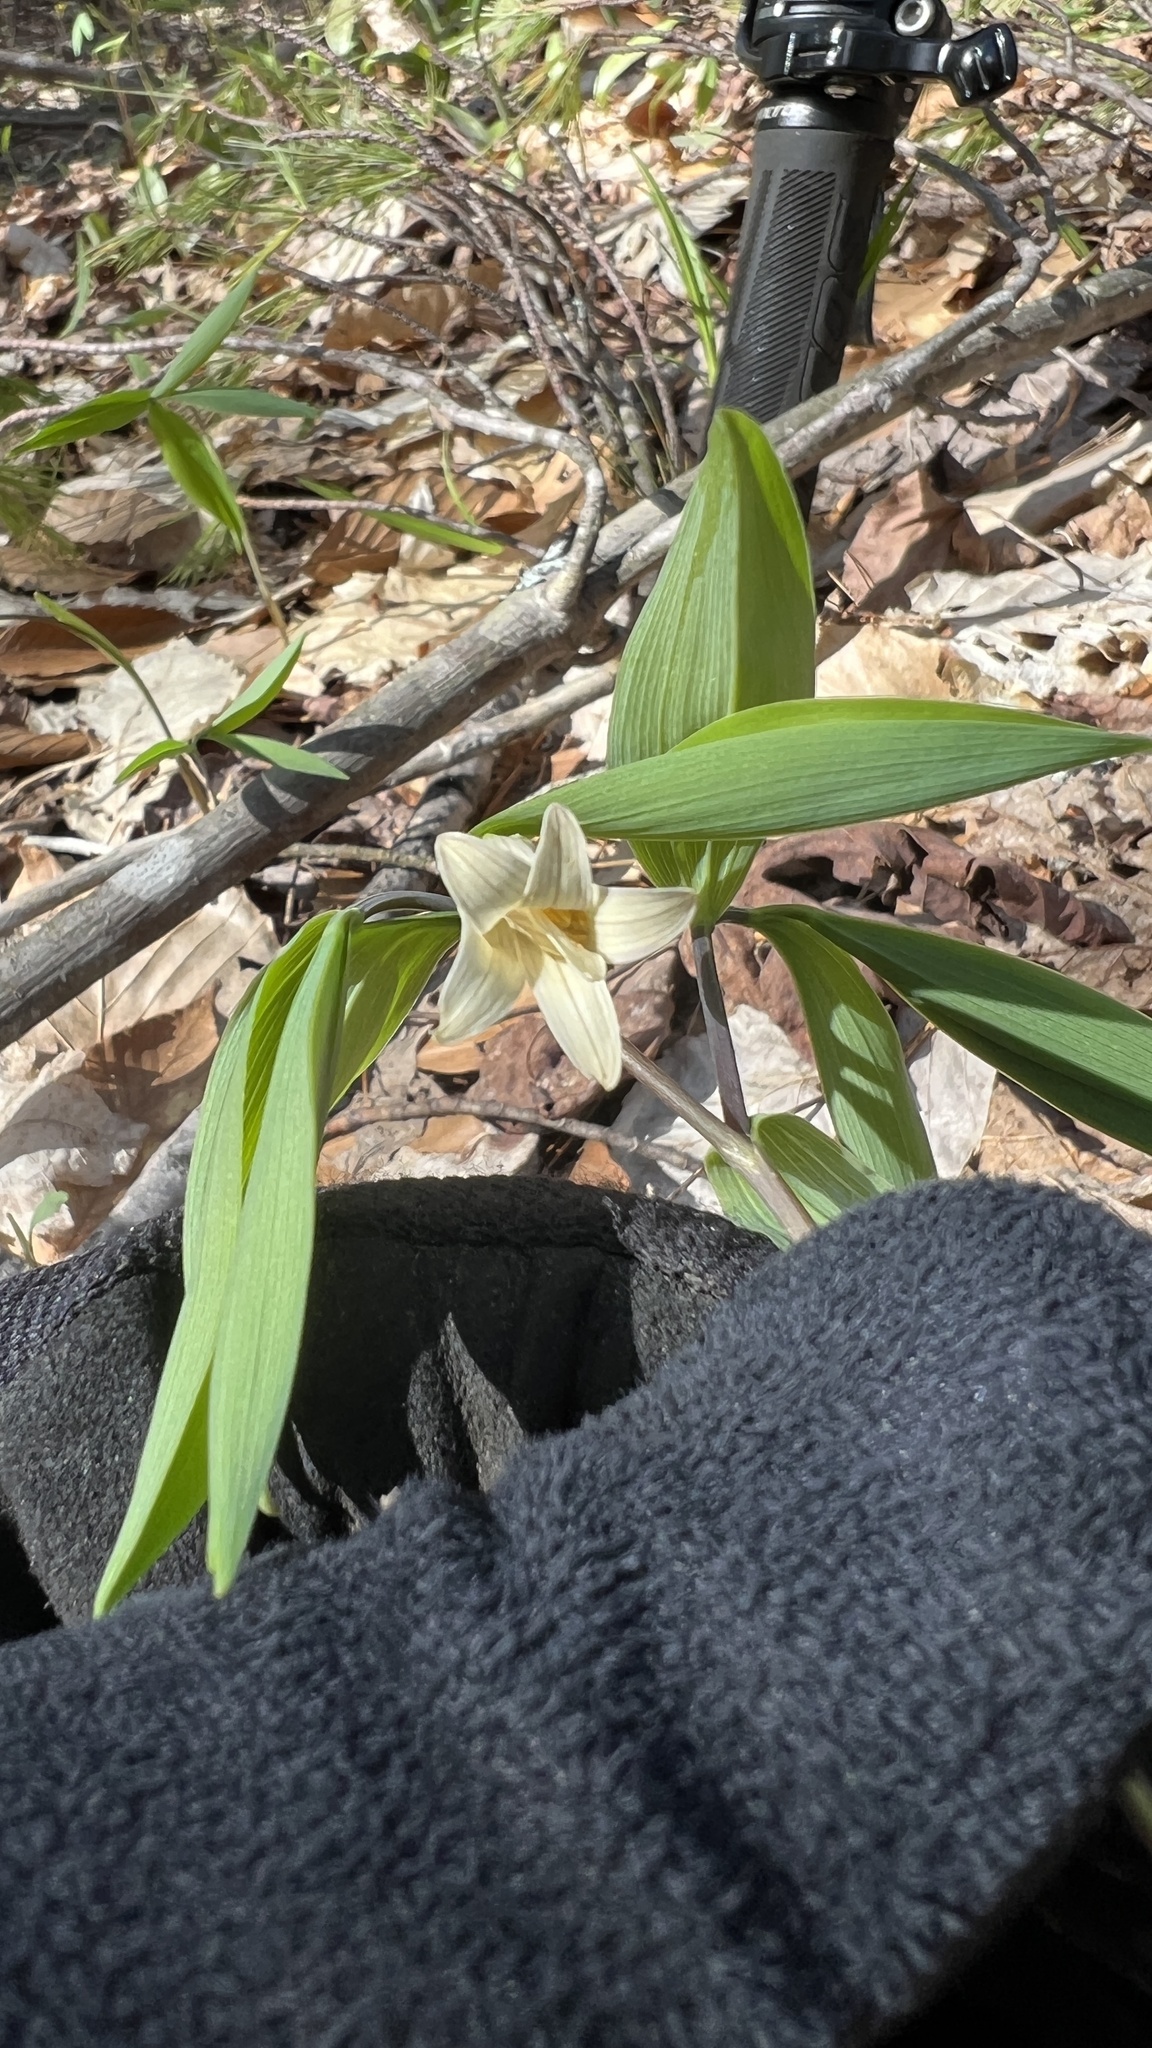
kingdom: Plantae
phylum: Tracheophyta
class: Liliopsida
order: Liliales
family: Colchicaceae
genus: Uvularia
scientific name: Uvularia sessilifolia
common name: Straw-lily
